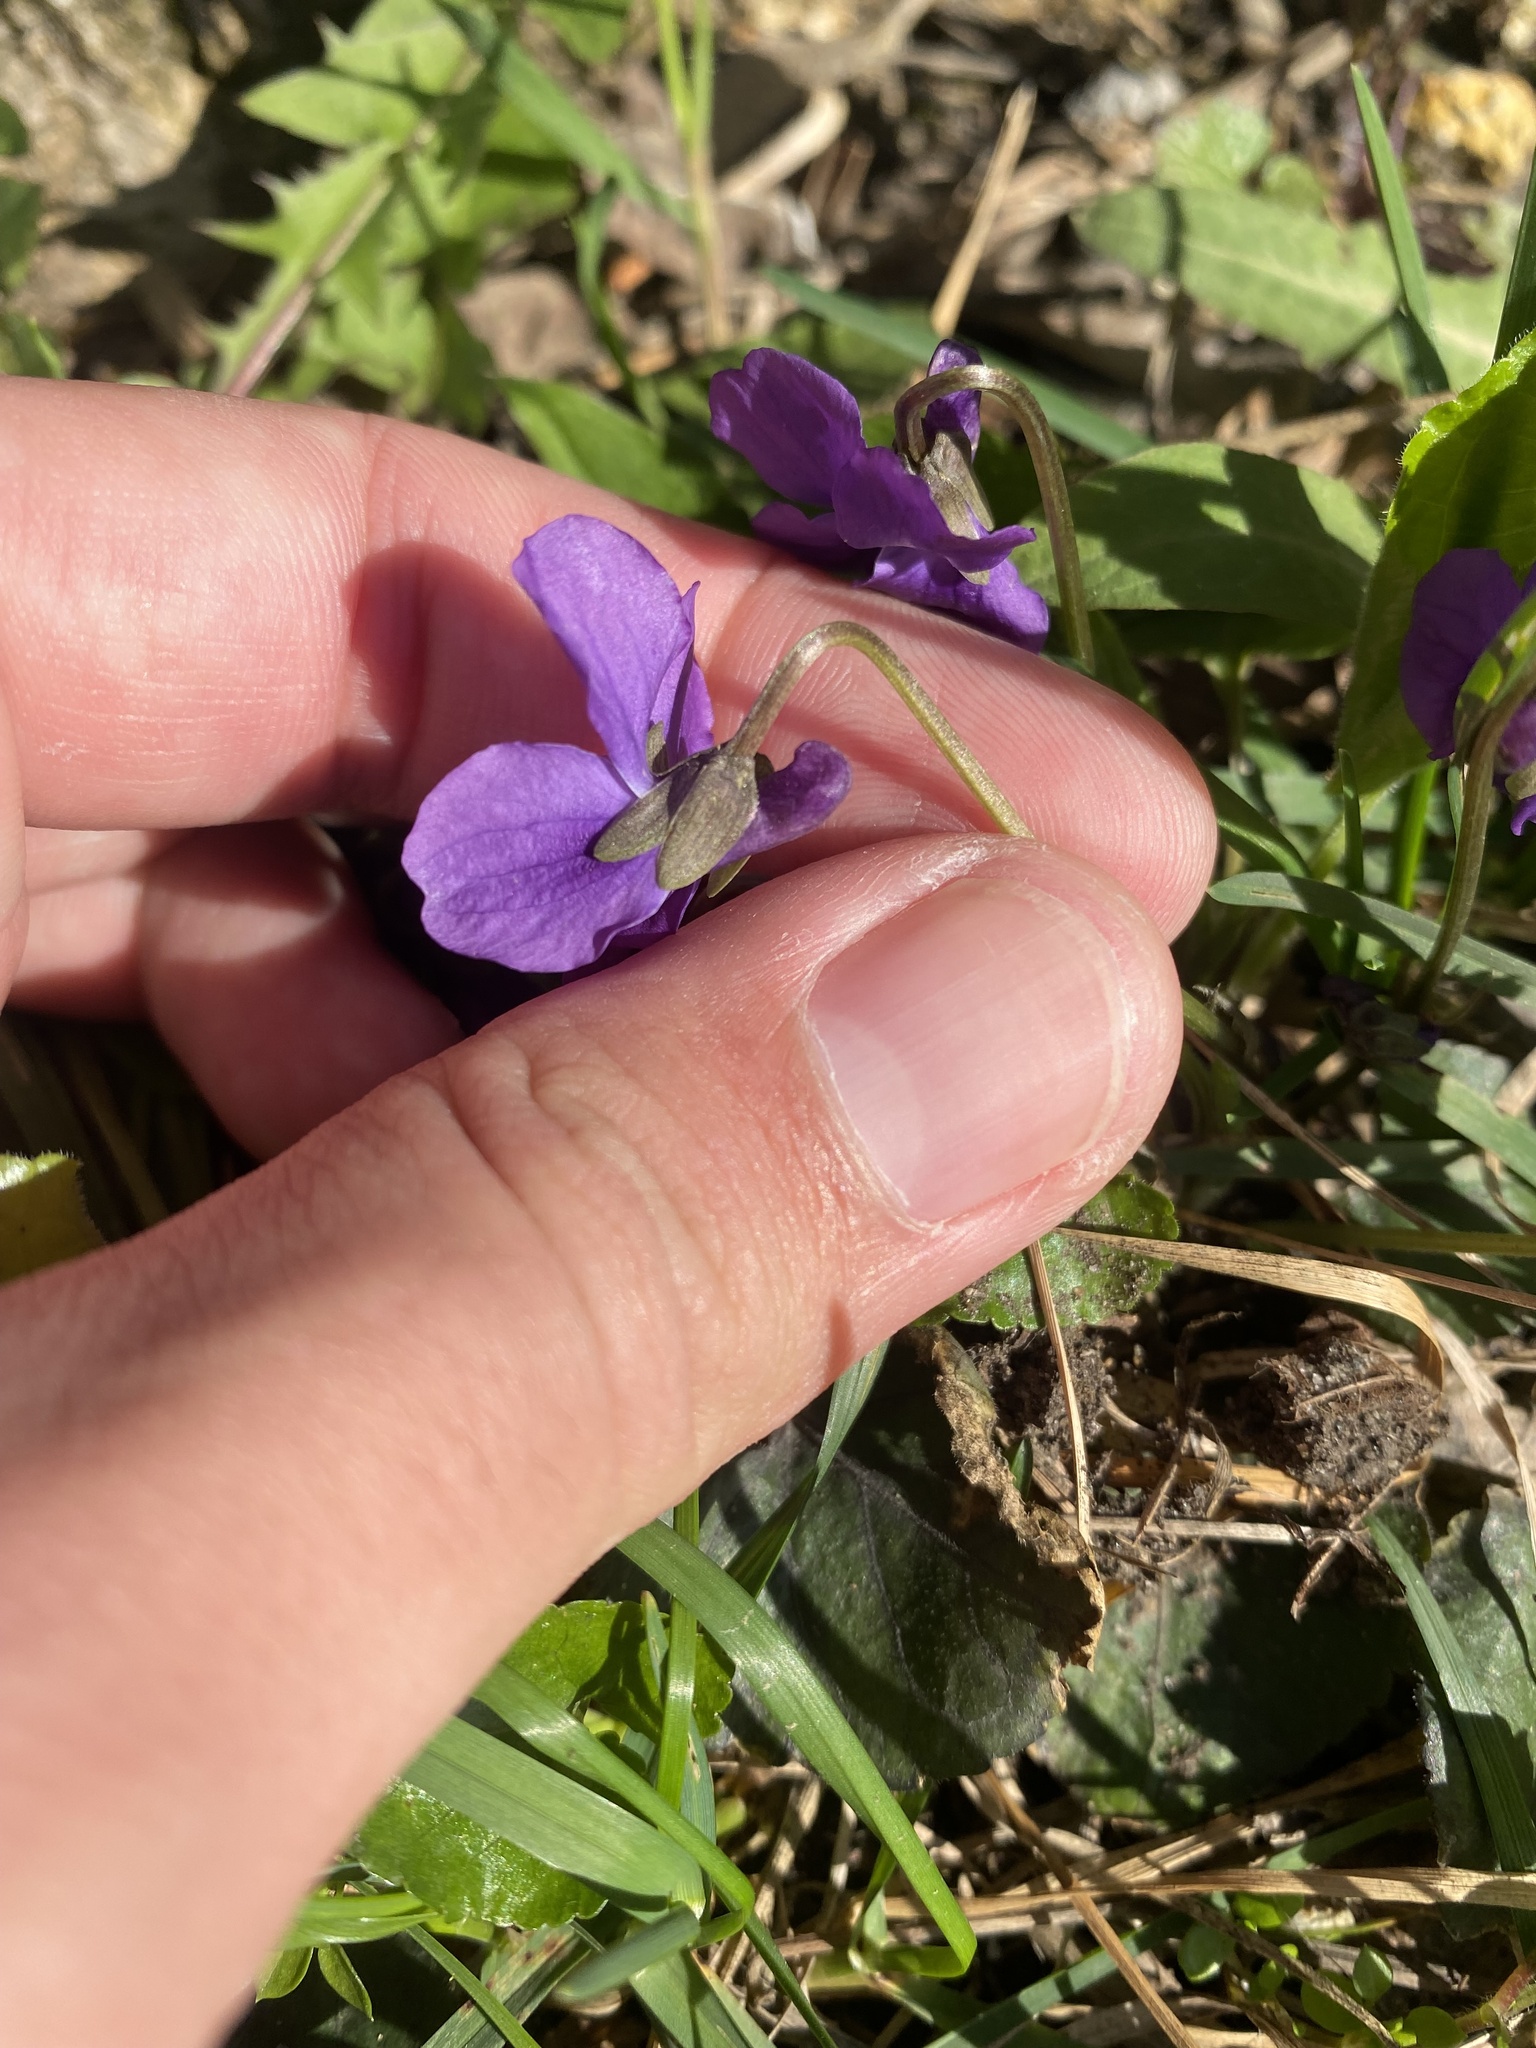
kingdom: Plantae
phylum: Tracheophyta
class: Magnoliopsida
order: Malpighiales
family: Violaceae
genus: Viola
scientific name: Viola odorata
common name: Sweet violet
